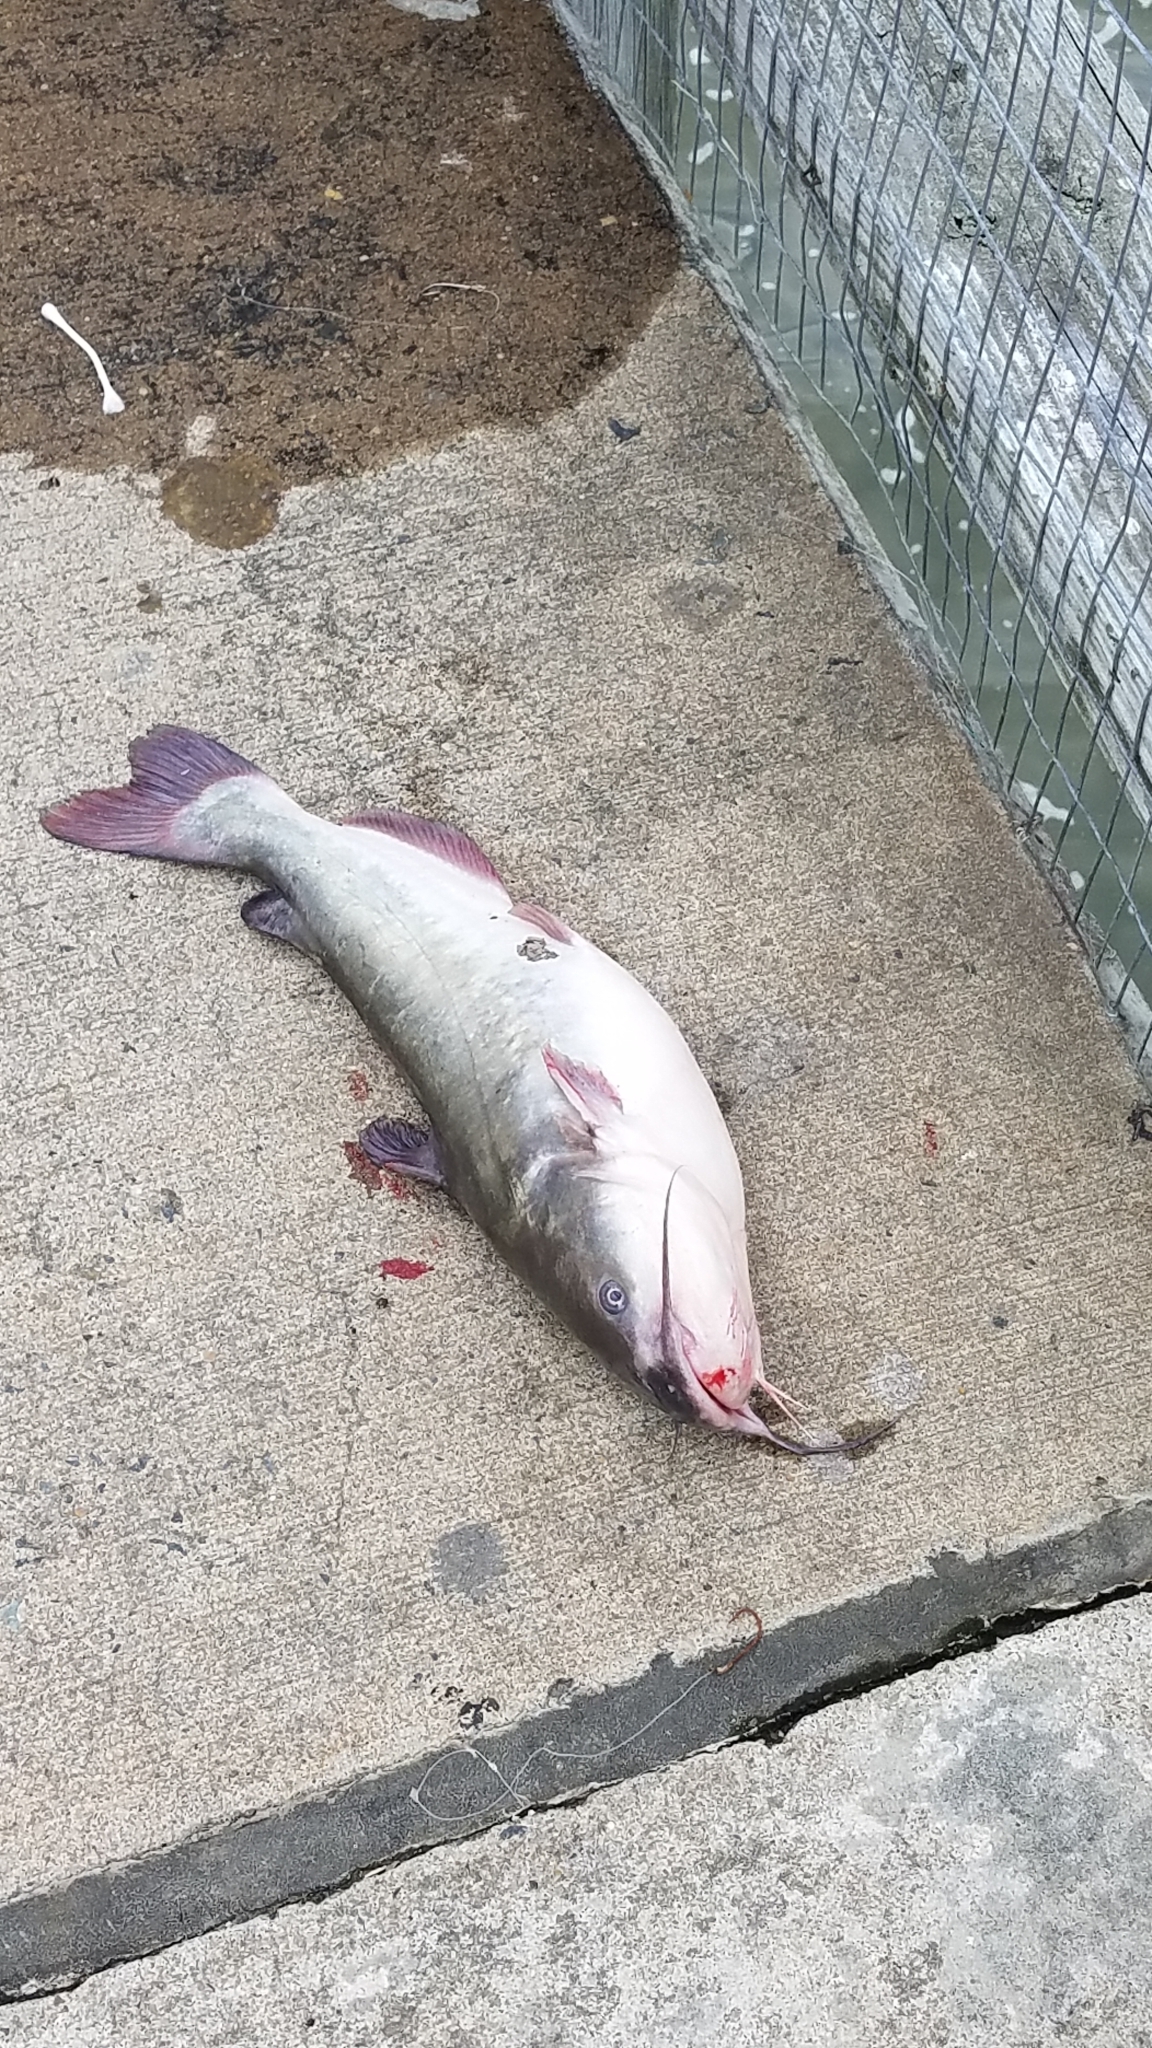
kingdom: Animalia
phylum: Chordata
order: Siluriformes
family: Ictaluridae
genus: Ameiurus
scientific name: Ameiurus catus
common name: White catfish
